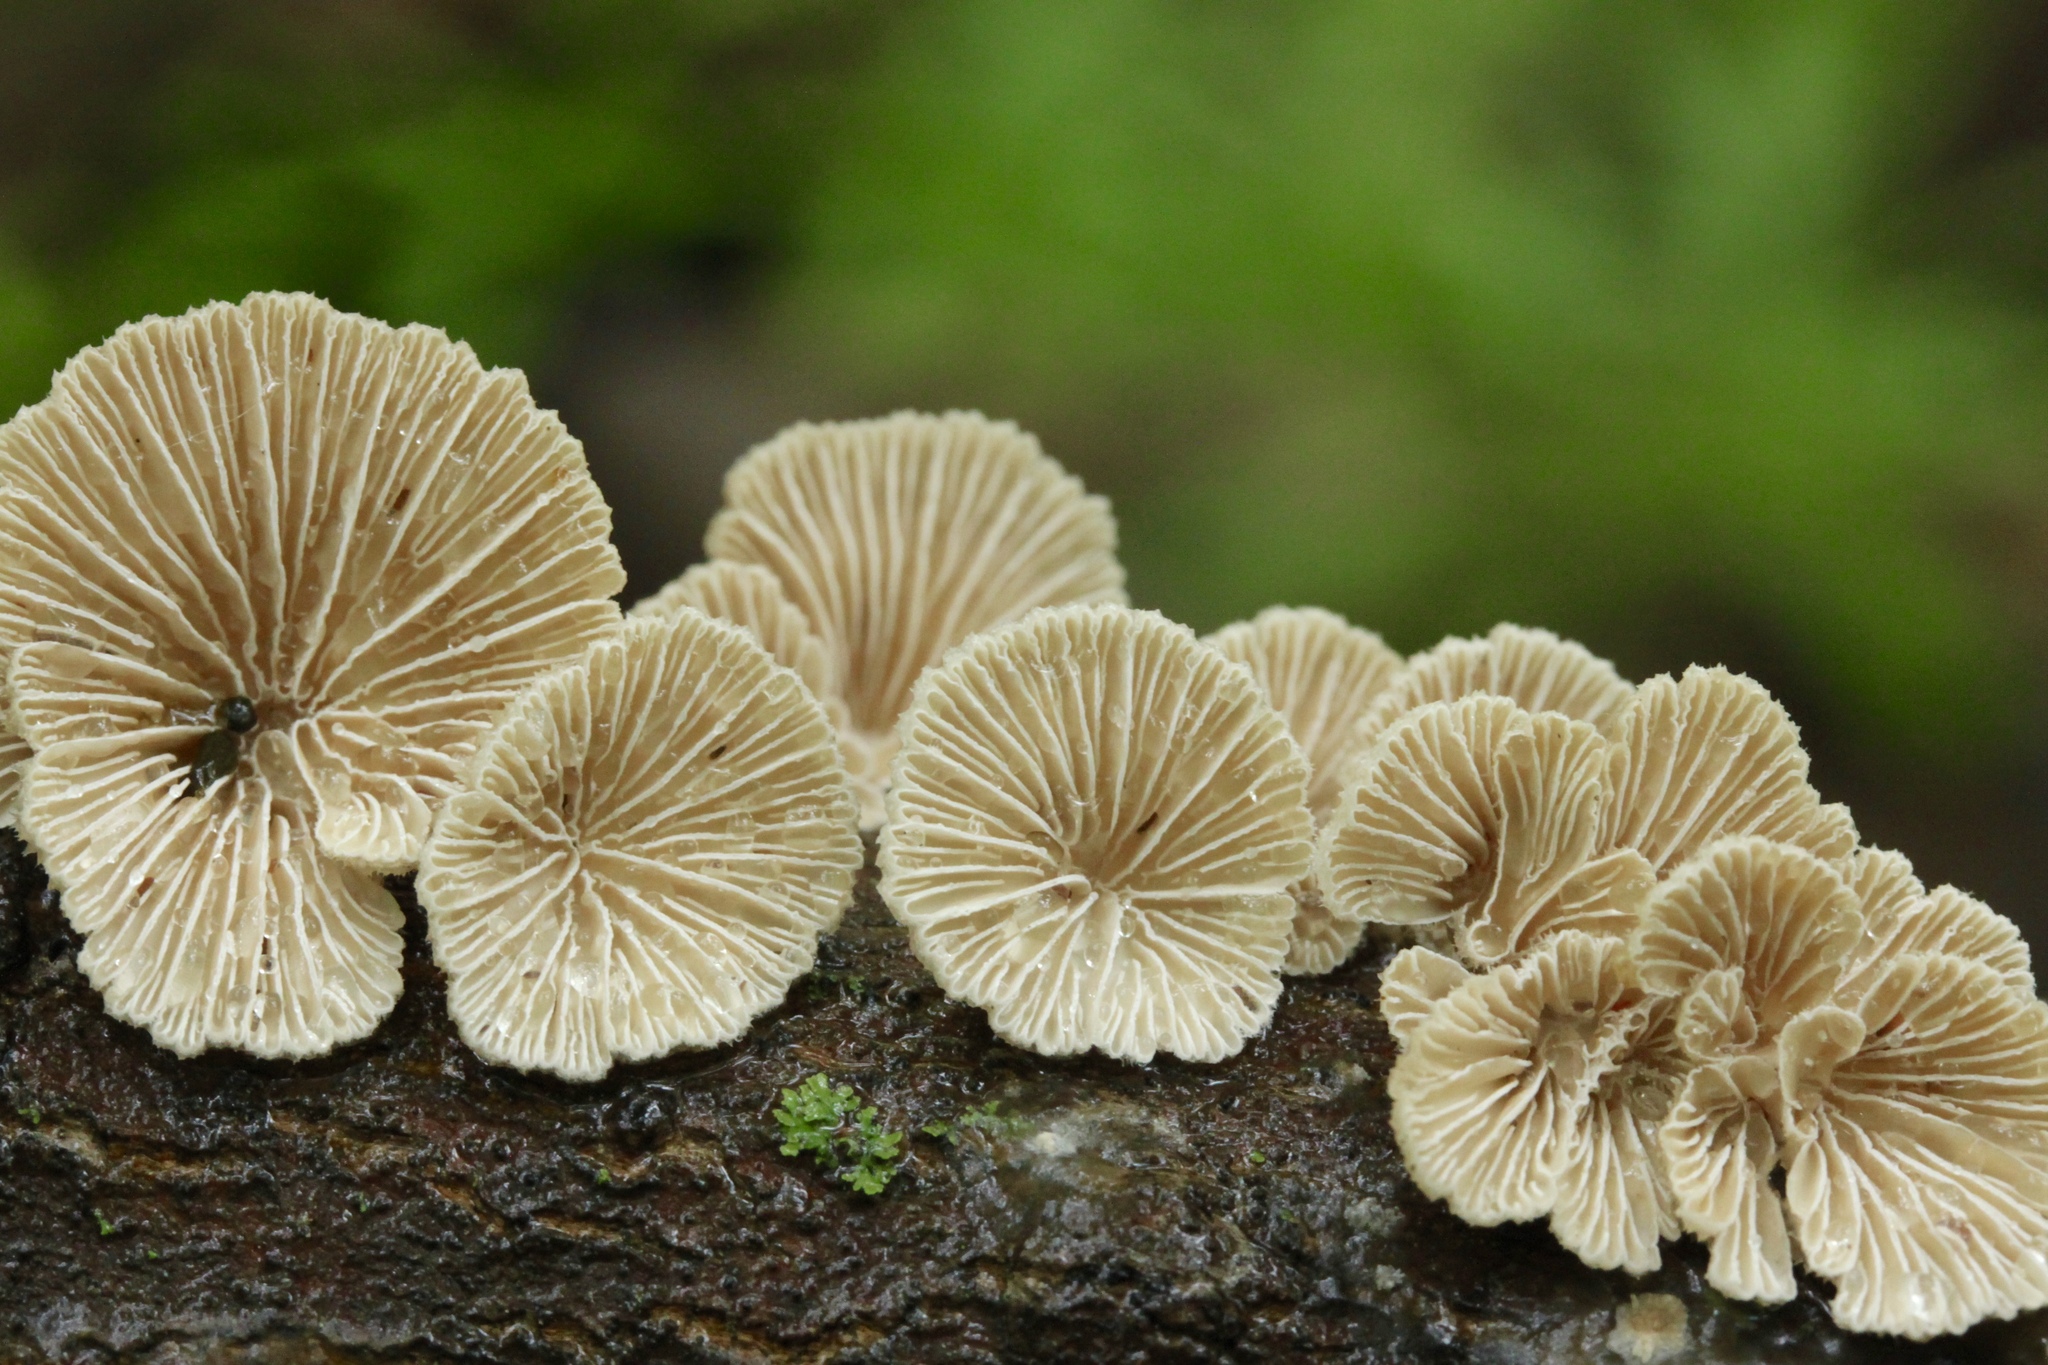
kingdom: Fungi
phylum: Basidiomycota
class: Agaricomycetes
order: Agaricales
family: Schizophyllaceae
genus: Schizophyllum
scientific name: Schizophyllum commune
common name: Common porecrust
